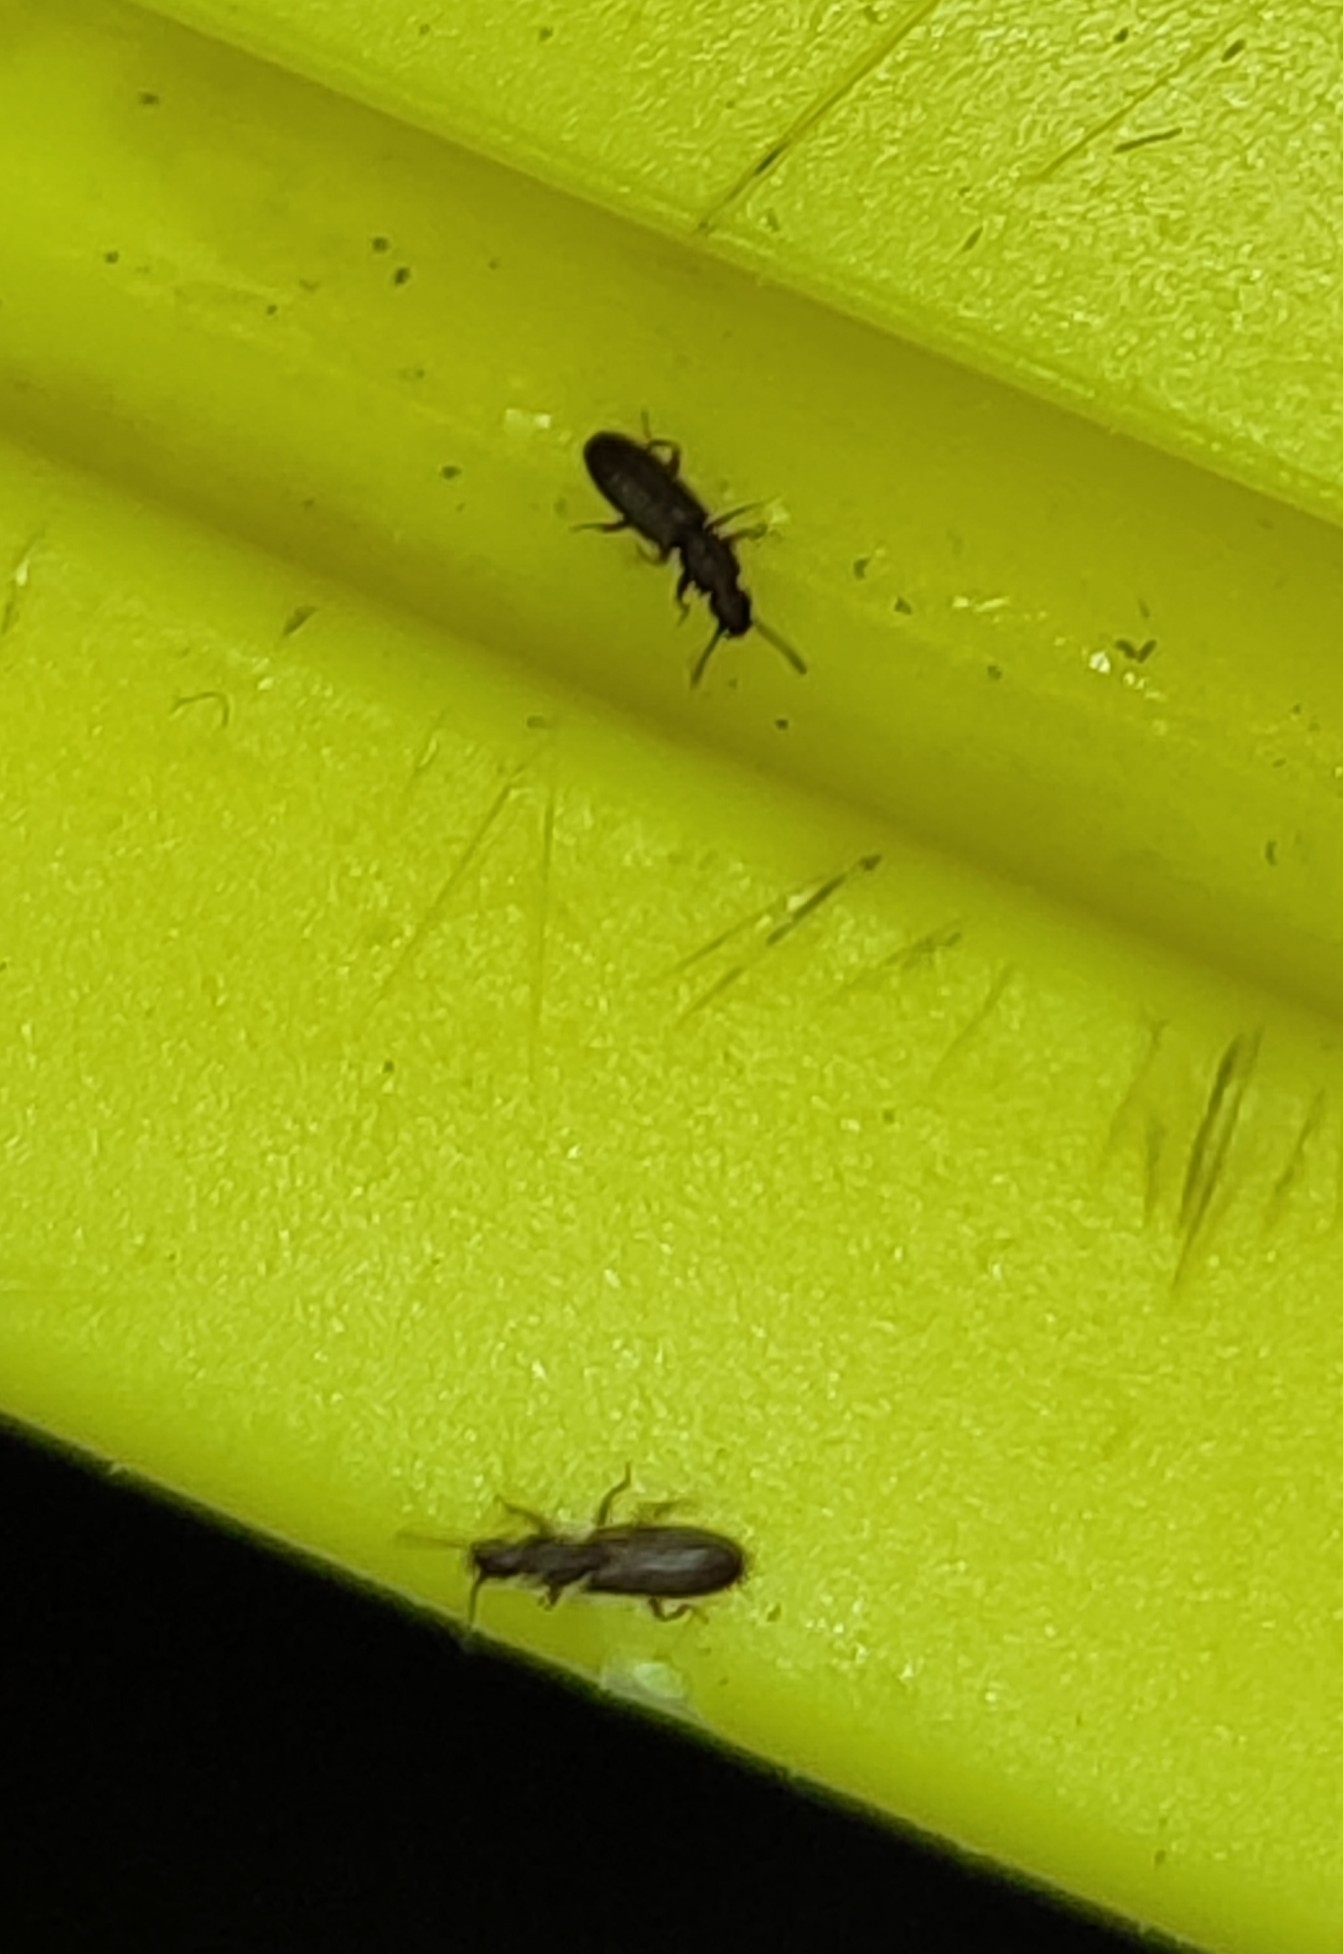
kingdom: Animalia
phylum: Arthropoda
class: Insecta
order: Coleoptera
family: Silvanidae
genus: Oryzaephilus
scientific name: Oryzaephilus surinamensis
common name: Sawtoothed grain beetle
